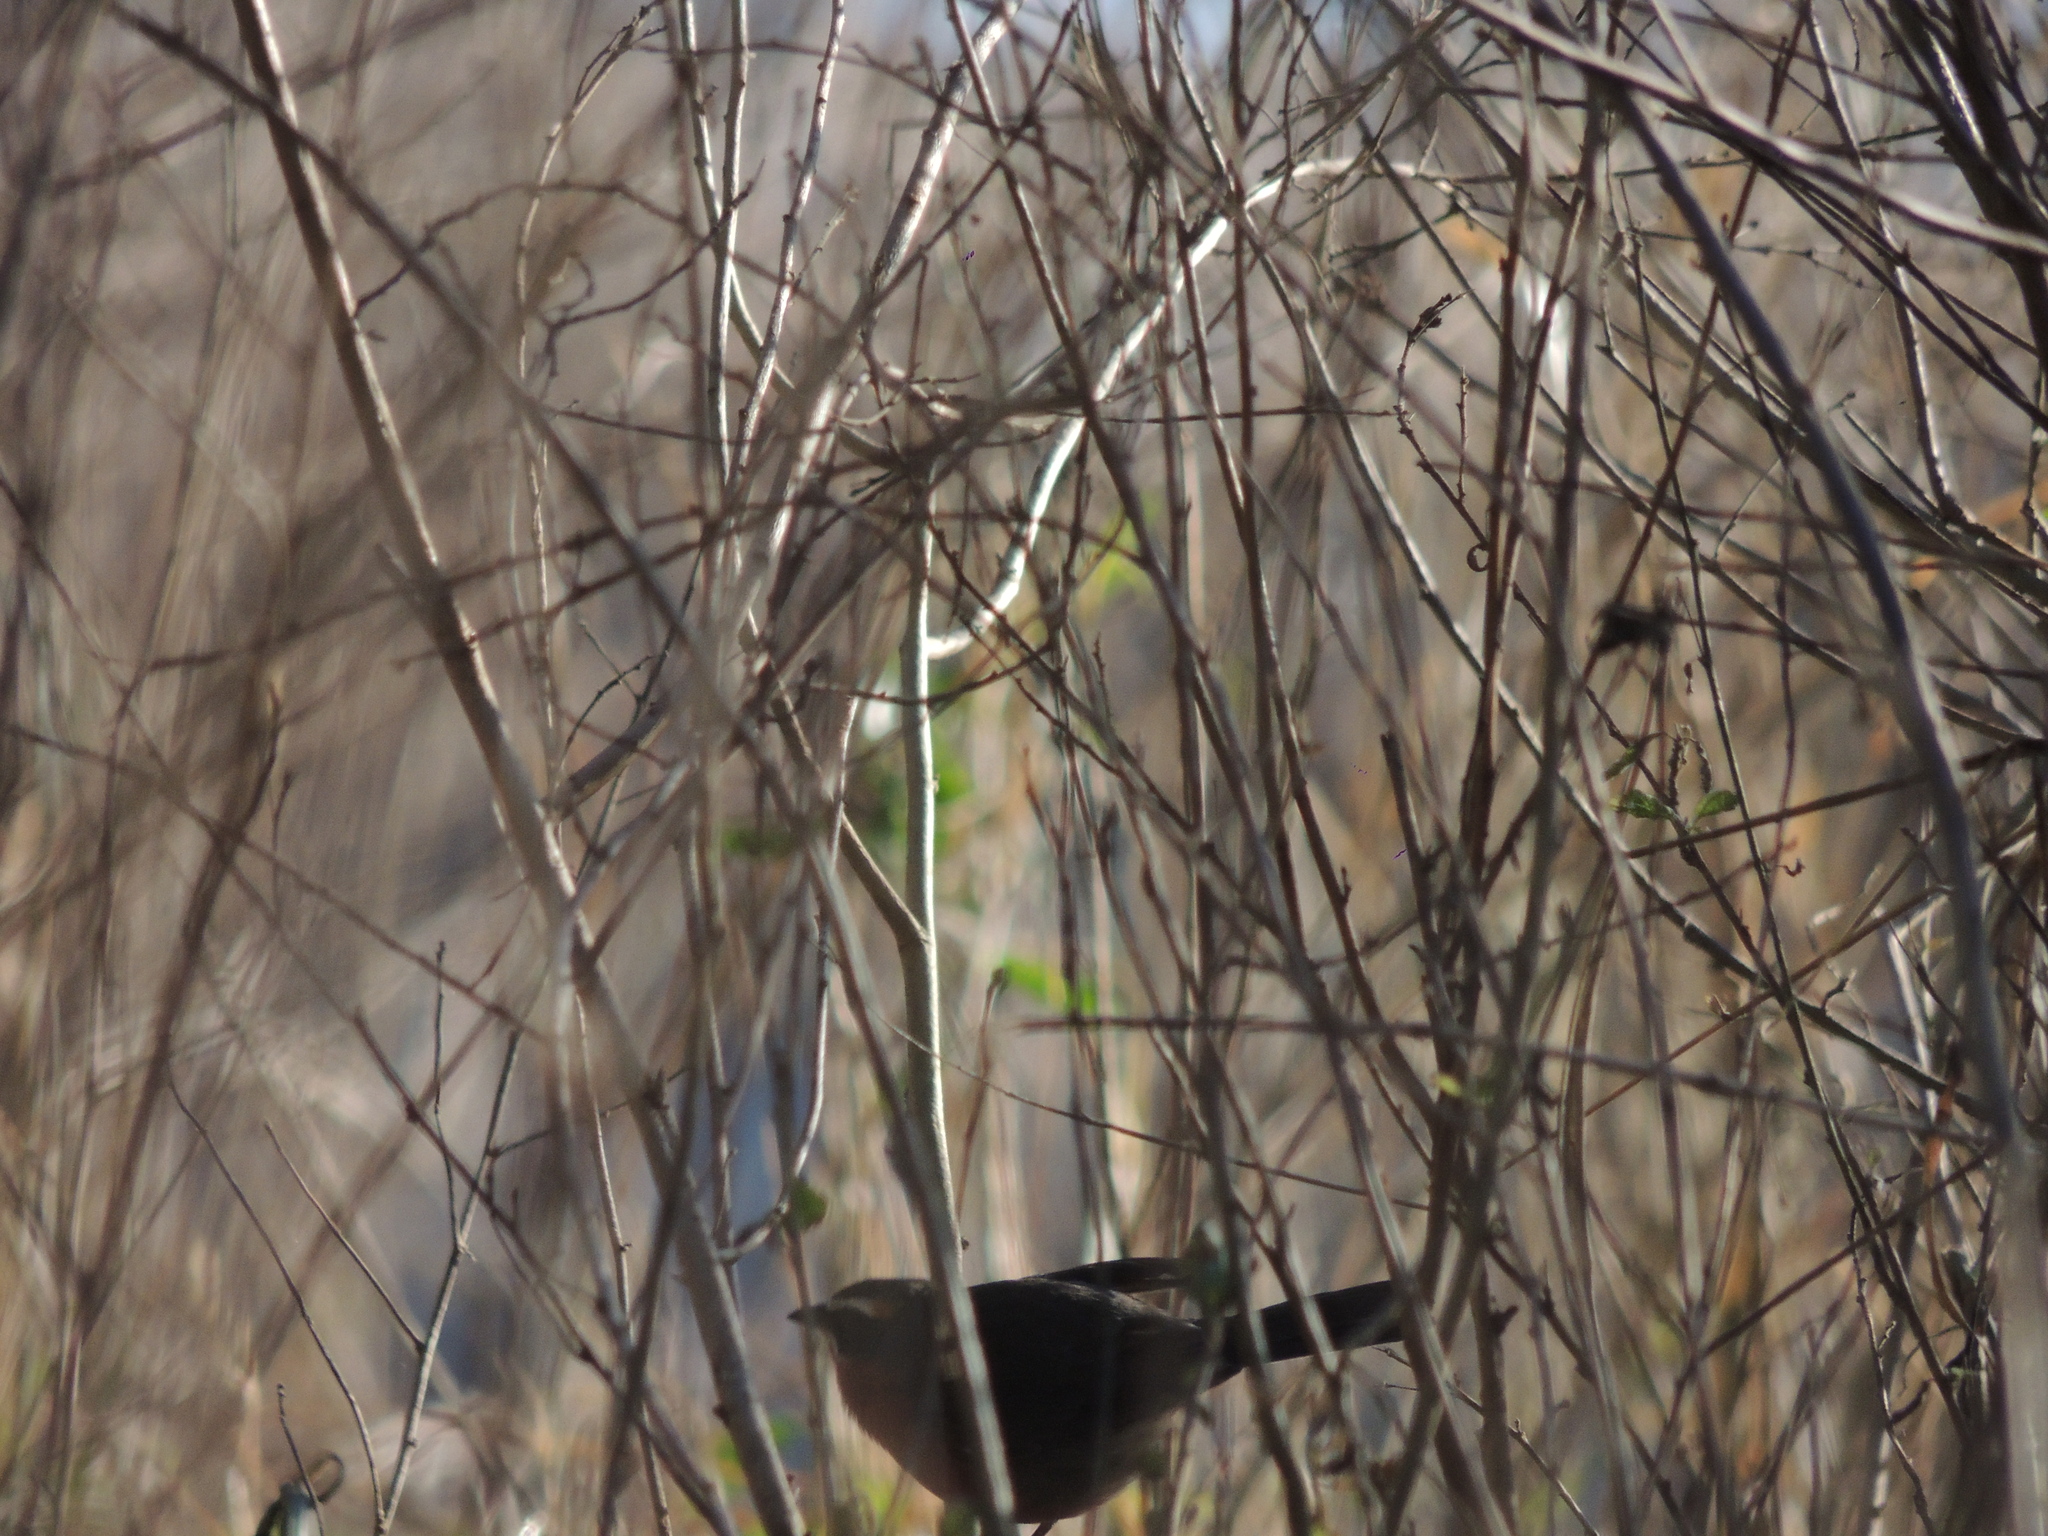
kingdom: Animalia
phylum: Chordata
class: Aves
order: Passeriformes
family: Thraupidae
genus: Poospiza
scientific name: Poospiza nigrorufa
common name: Black-and-rufous warbling finch
